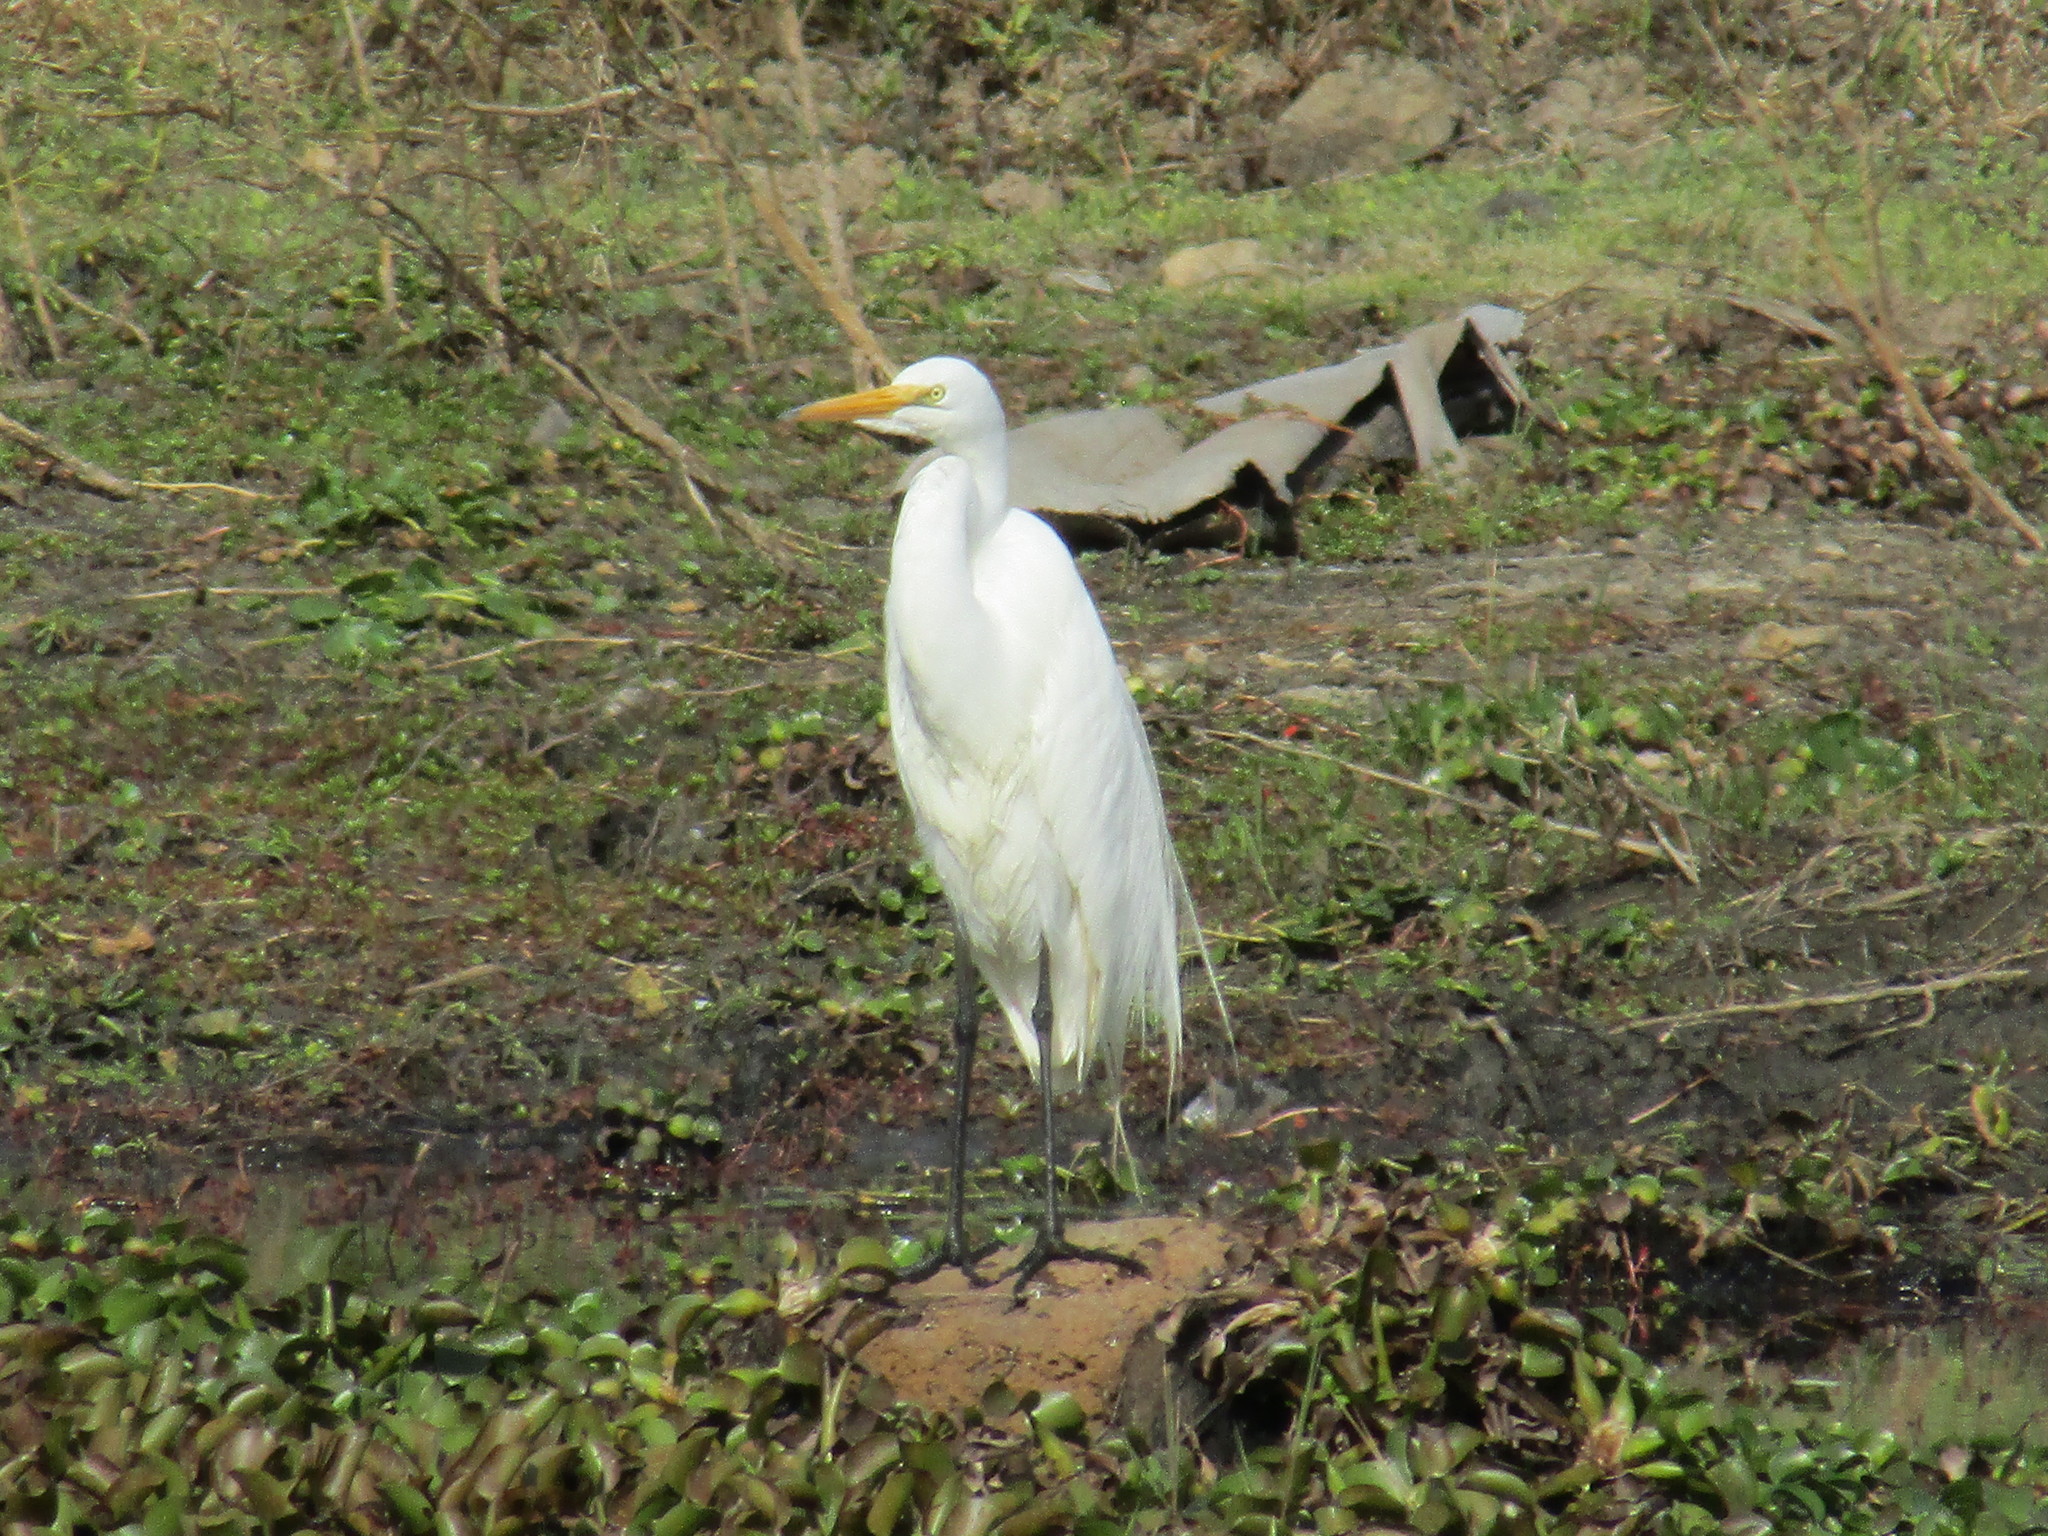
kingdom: Animalia
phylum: Chordata
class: Aves
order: Pelecaniformes
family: Ardeidae
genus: Ardea
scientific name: Ardea alba
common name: Great egret
